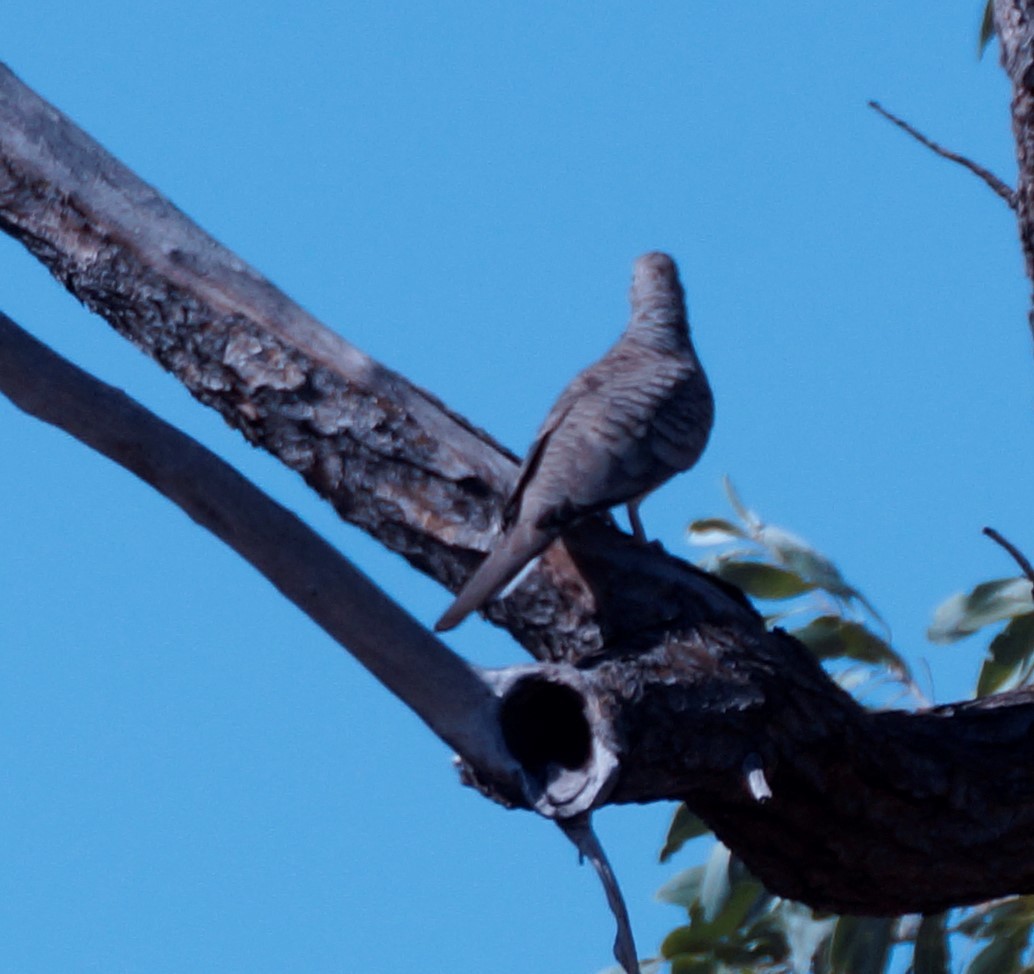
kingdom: Animalia
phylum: Chordata
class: Aves
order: Columbiformes
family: Columbidae
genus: Geopelia
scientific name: Geopelia placida
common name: Peaceful dove
